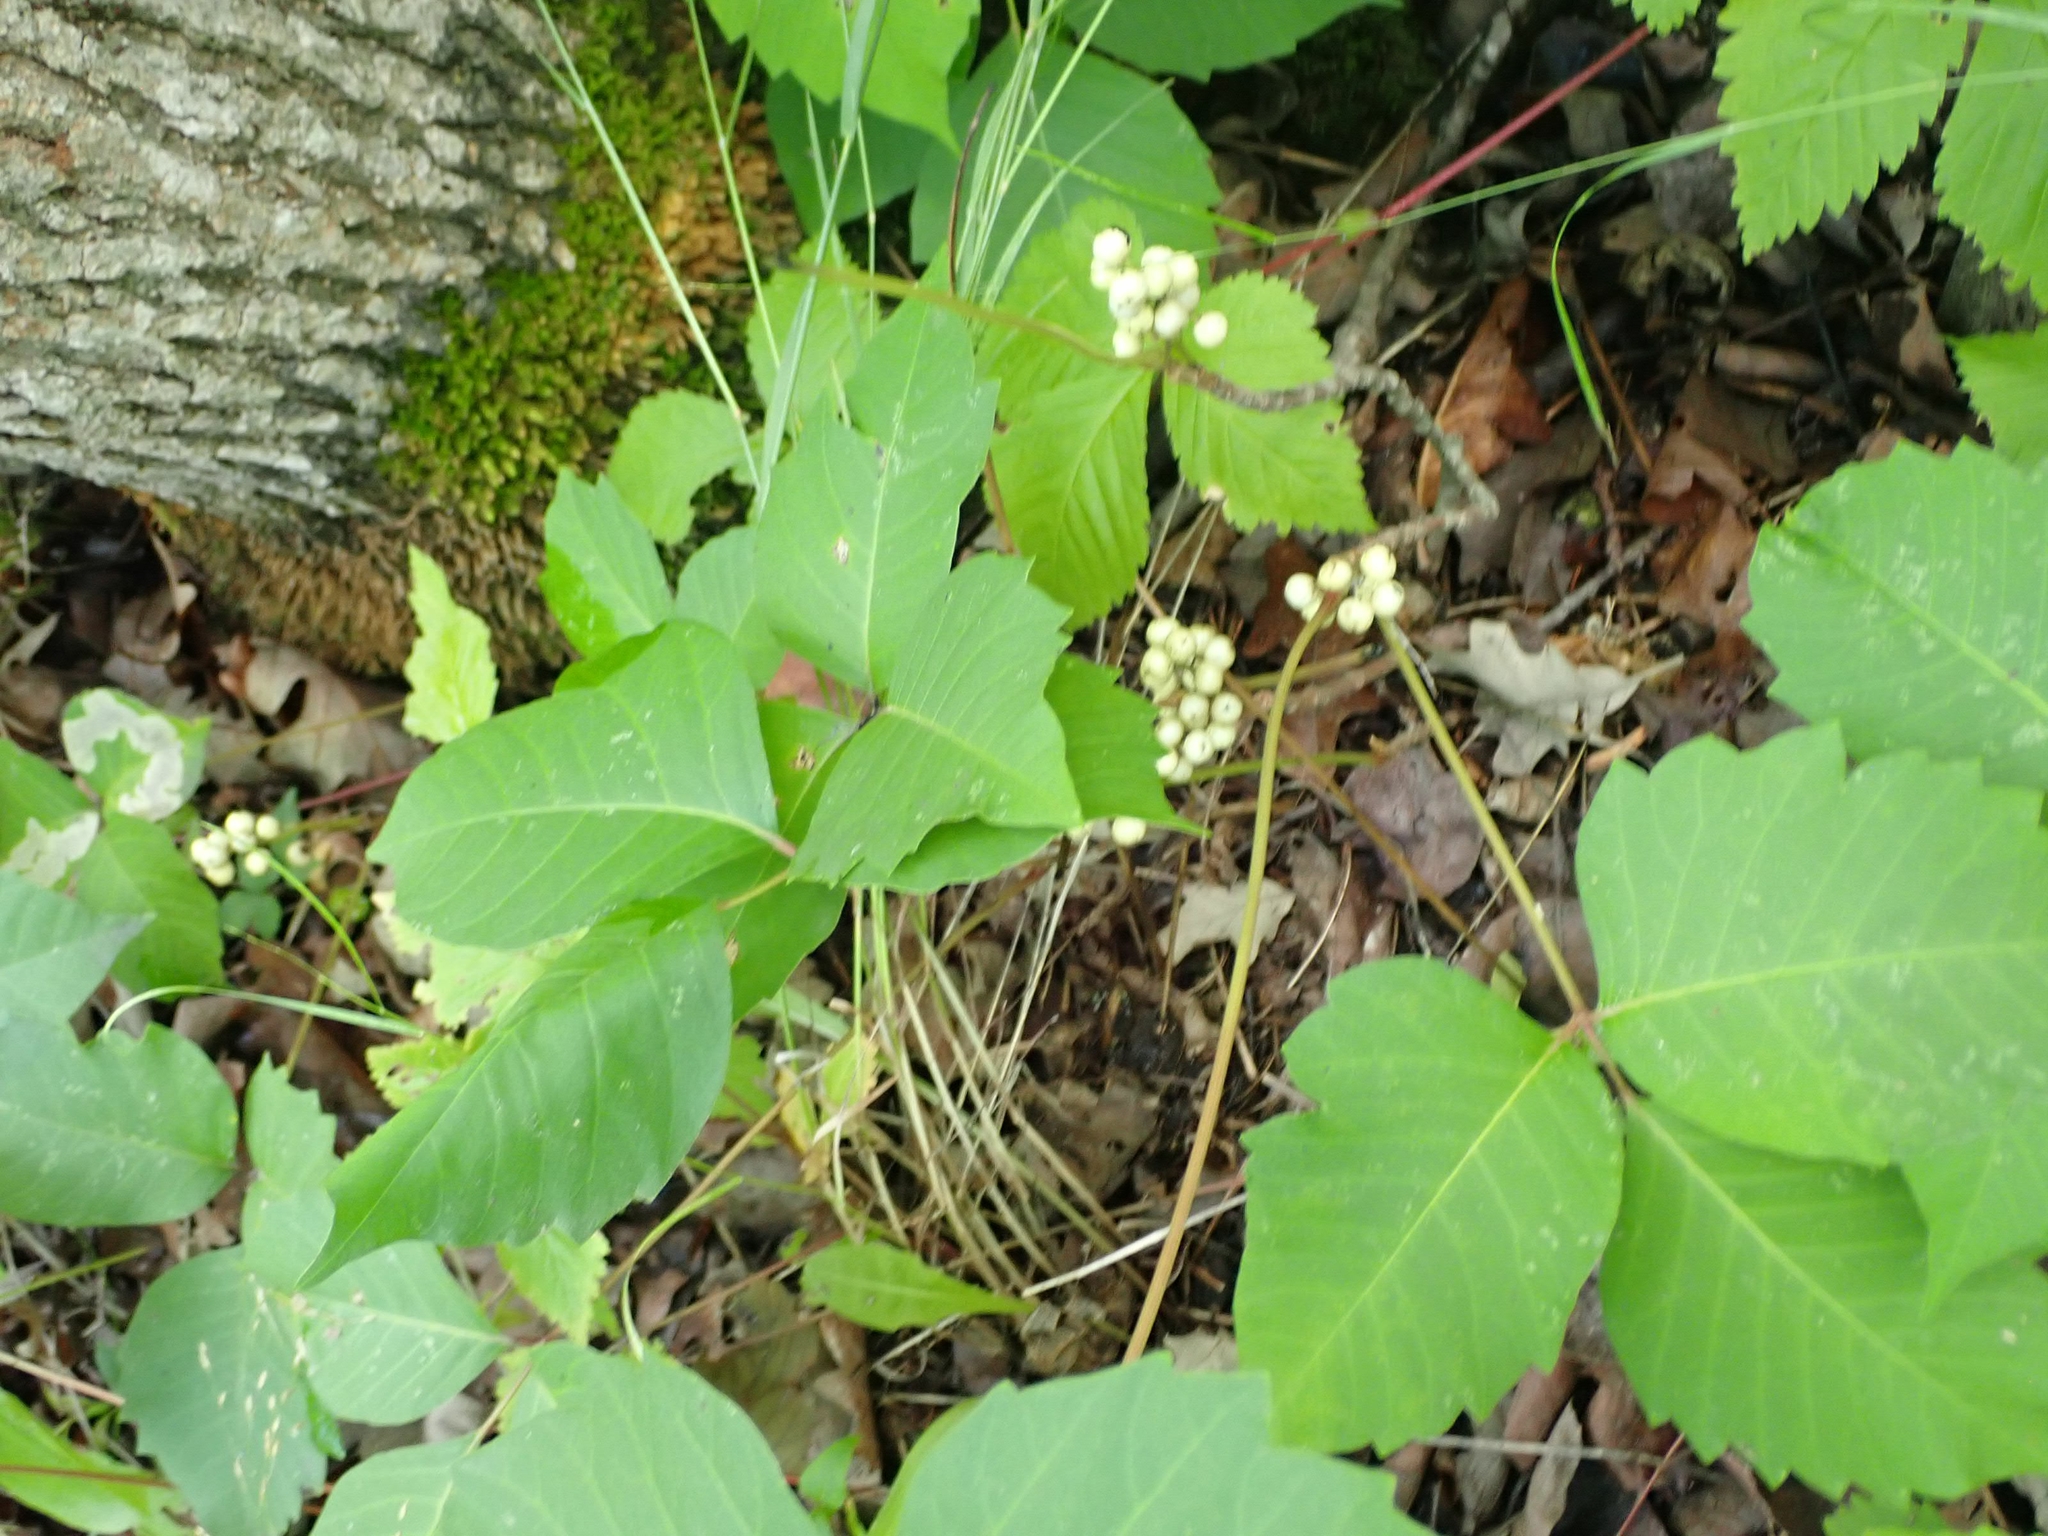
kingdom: Plantae
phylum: Tracheophyta
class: Magnoliopsida
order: Sapindales
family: Anacardiaceae
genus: Toxicodendron
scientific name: Toxicodendron rydbergii
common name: Rydberg's poison-ivy
